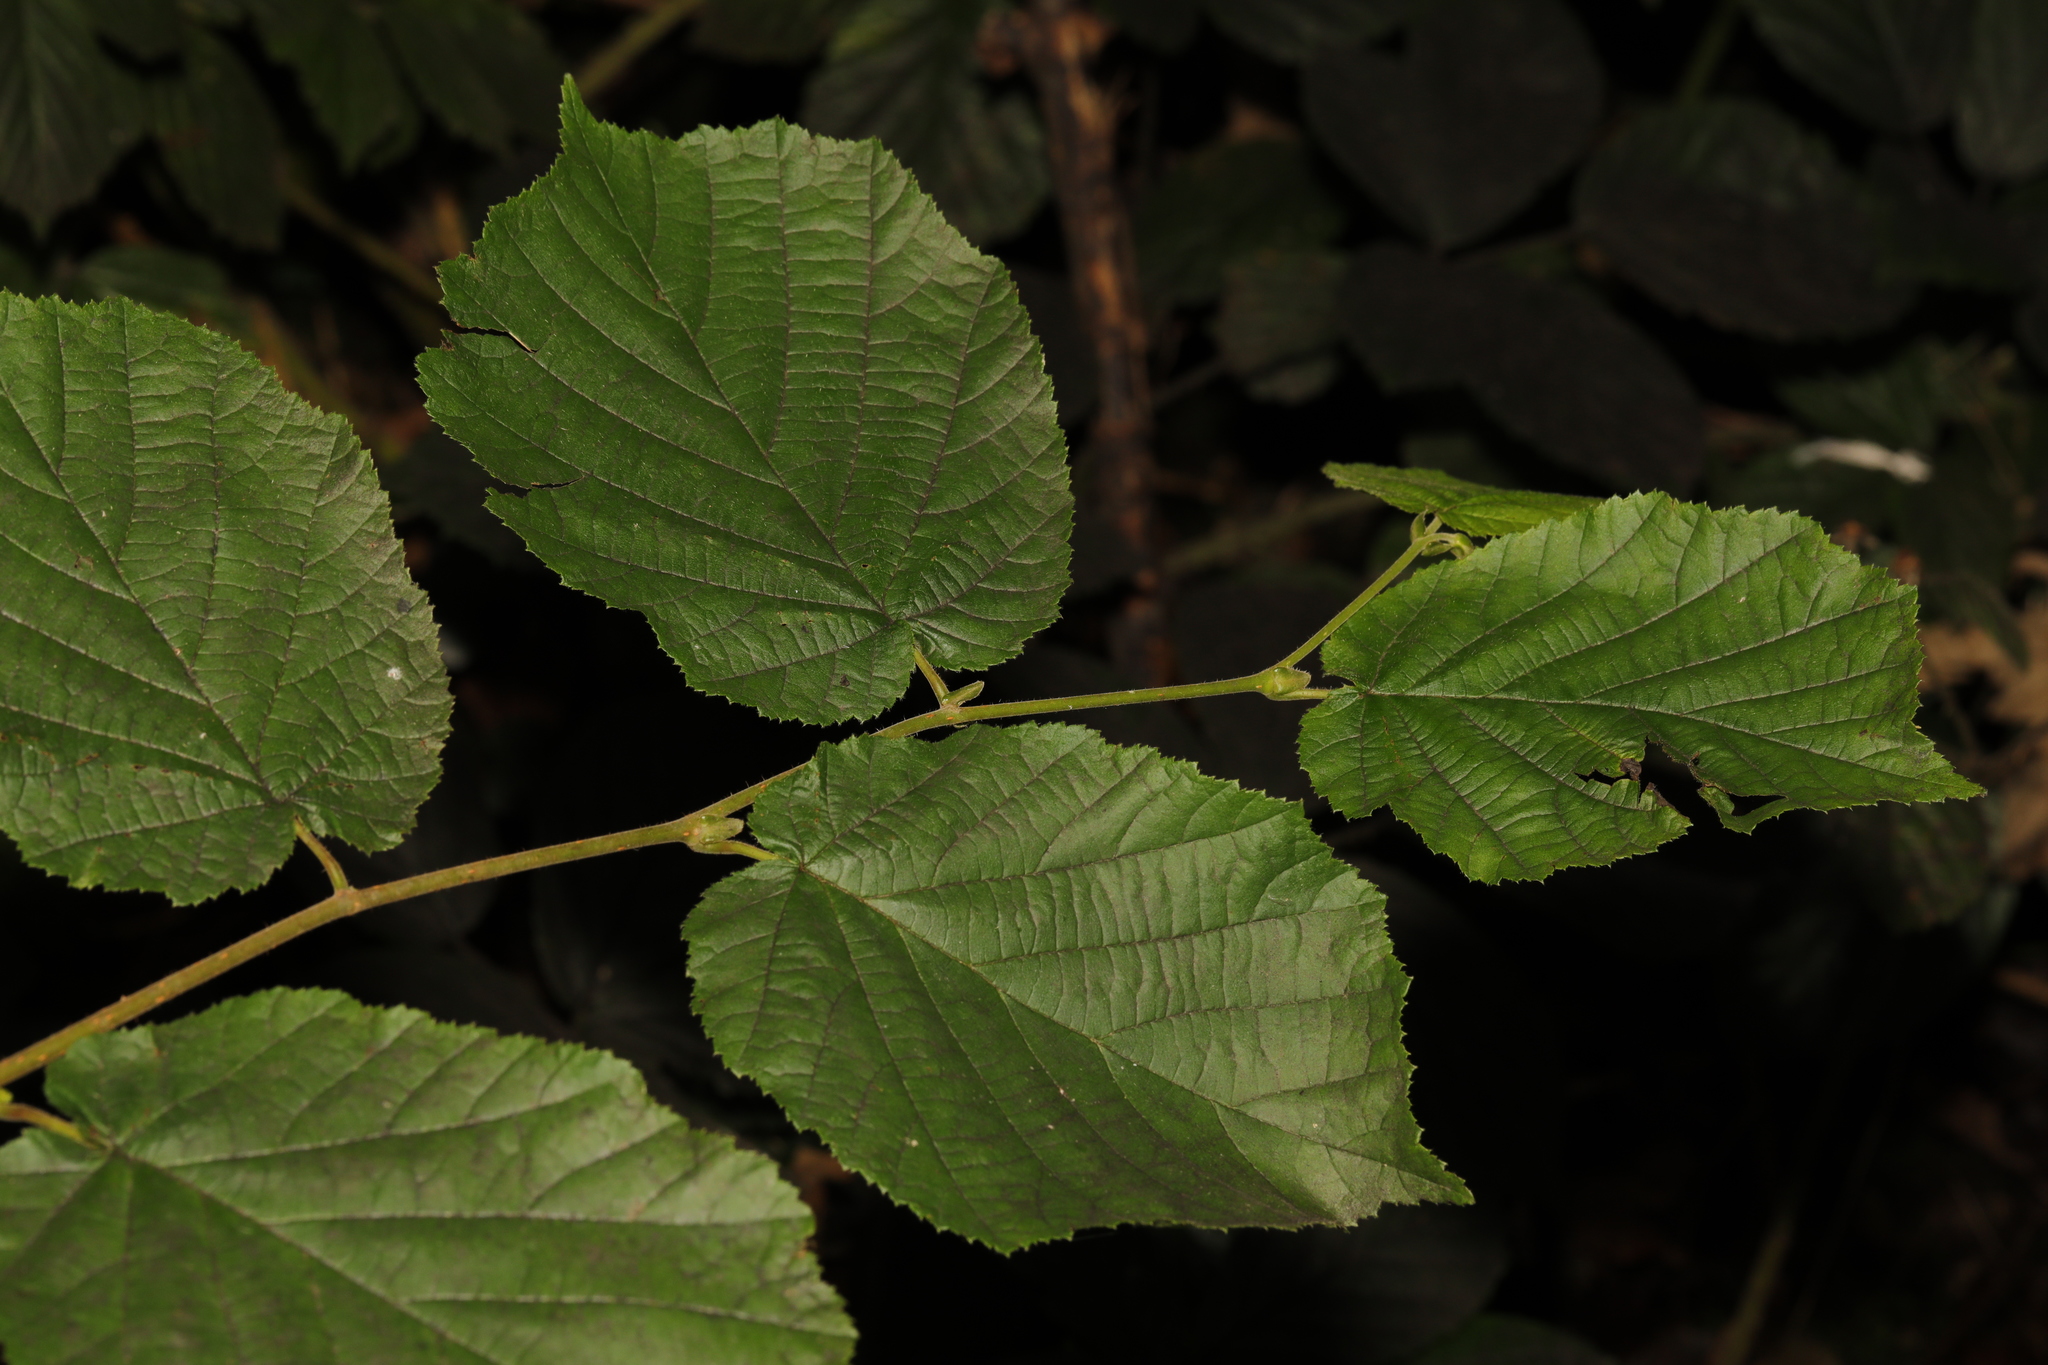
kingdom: Plantae
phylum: Tracheophyta
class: Magnoliopsida
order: Fagales
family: Betulaceae
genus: Corylus
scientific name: Corylus avellana
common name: European hazel
